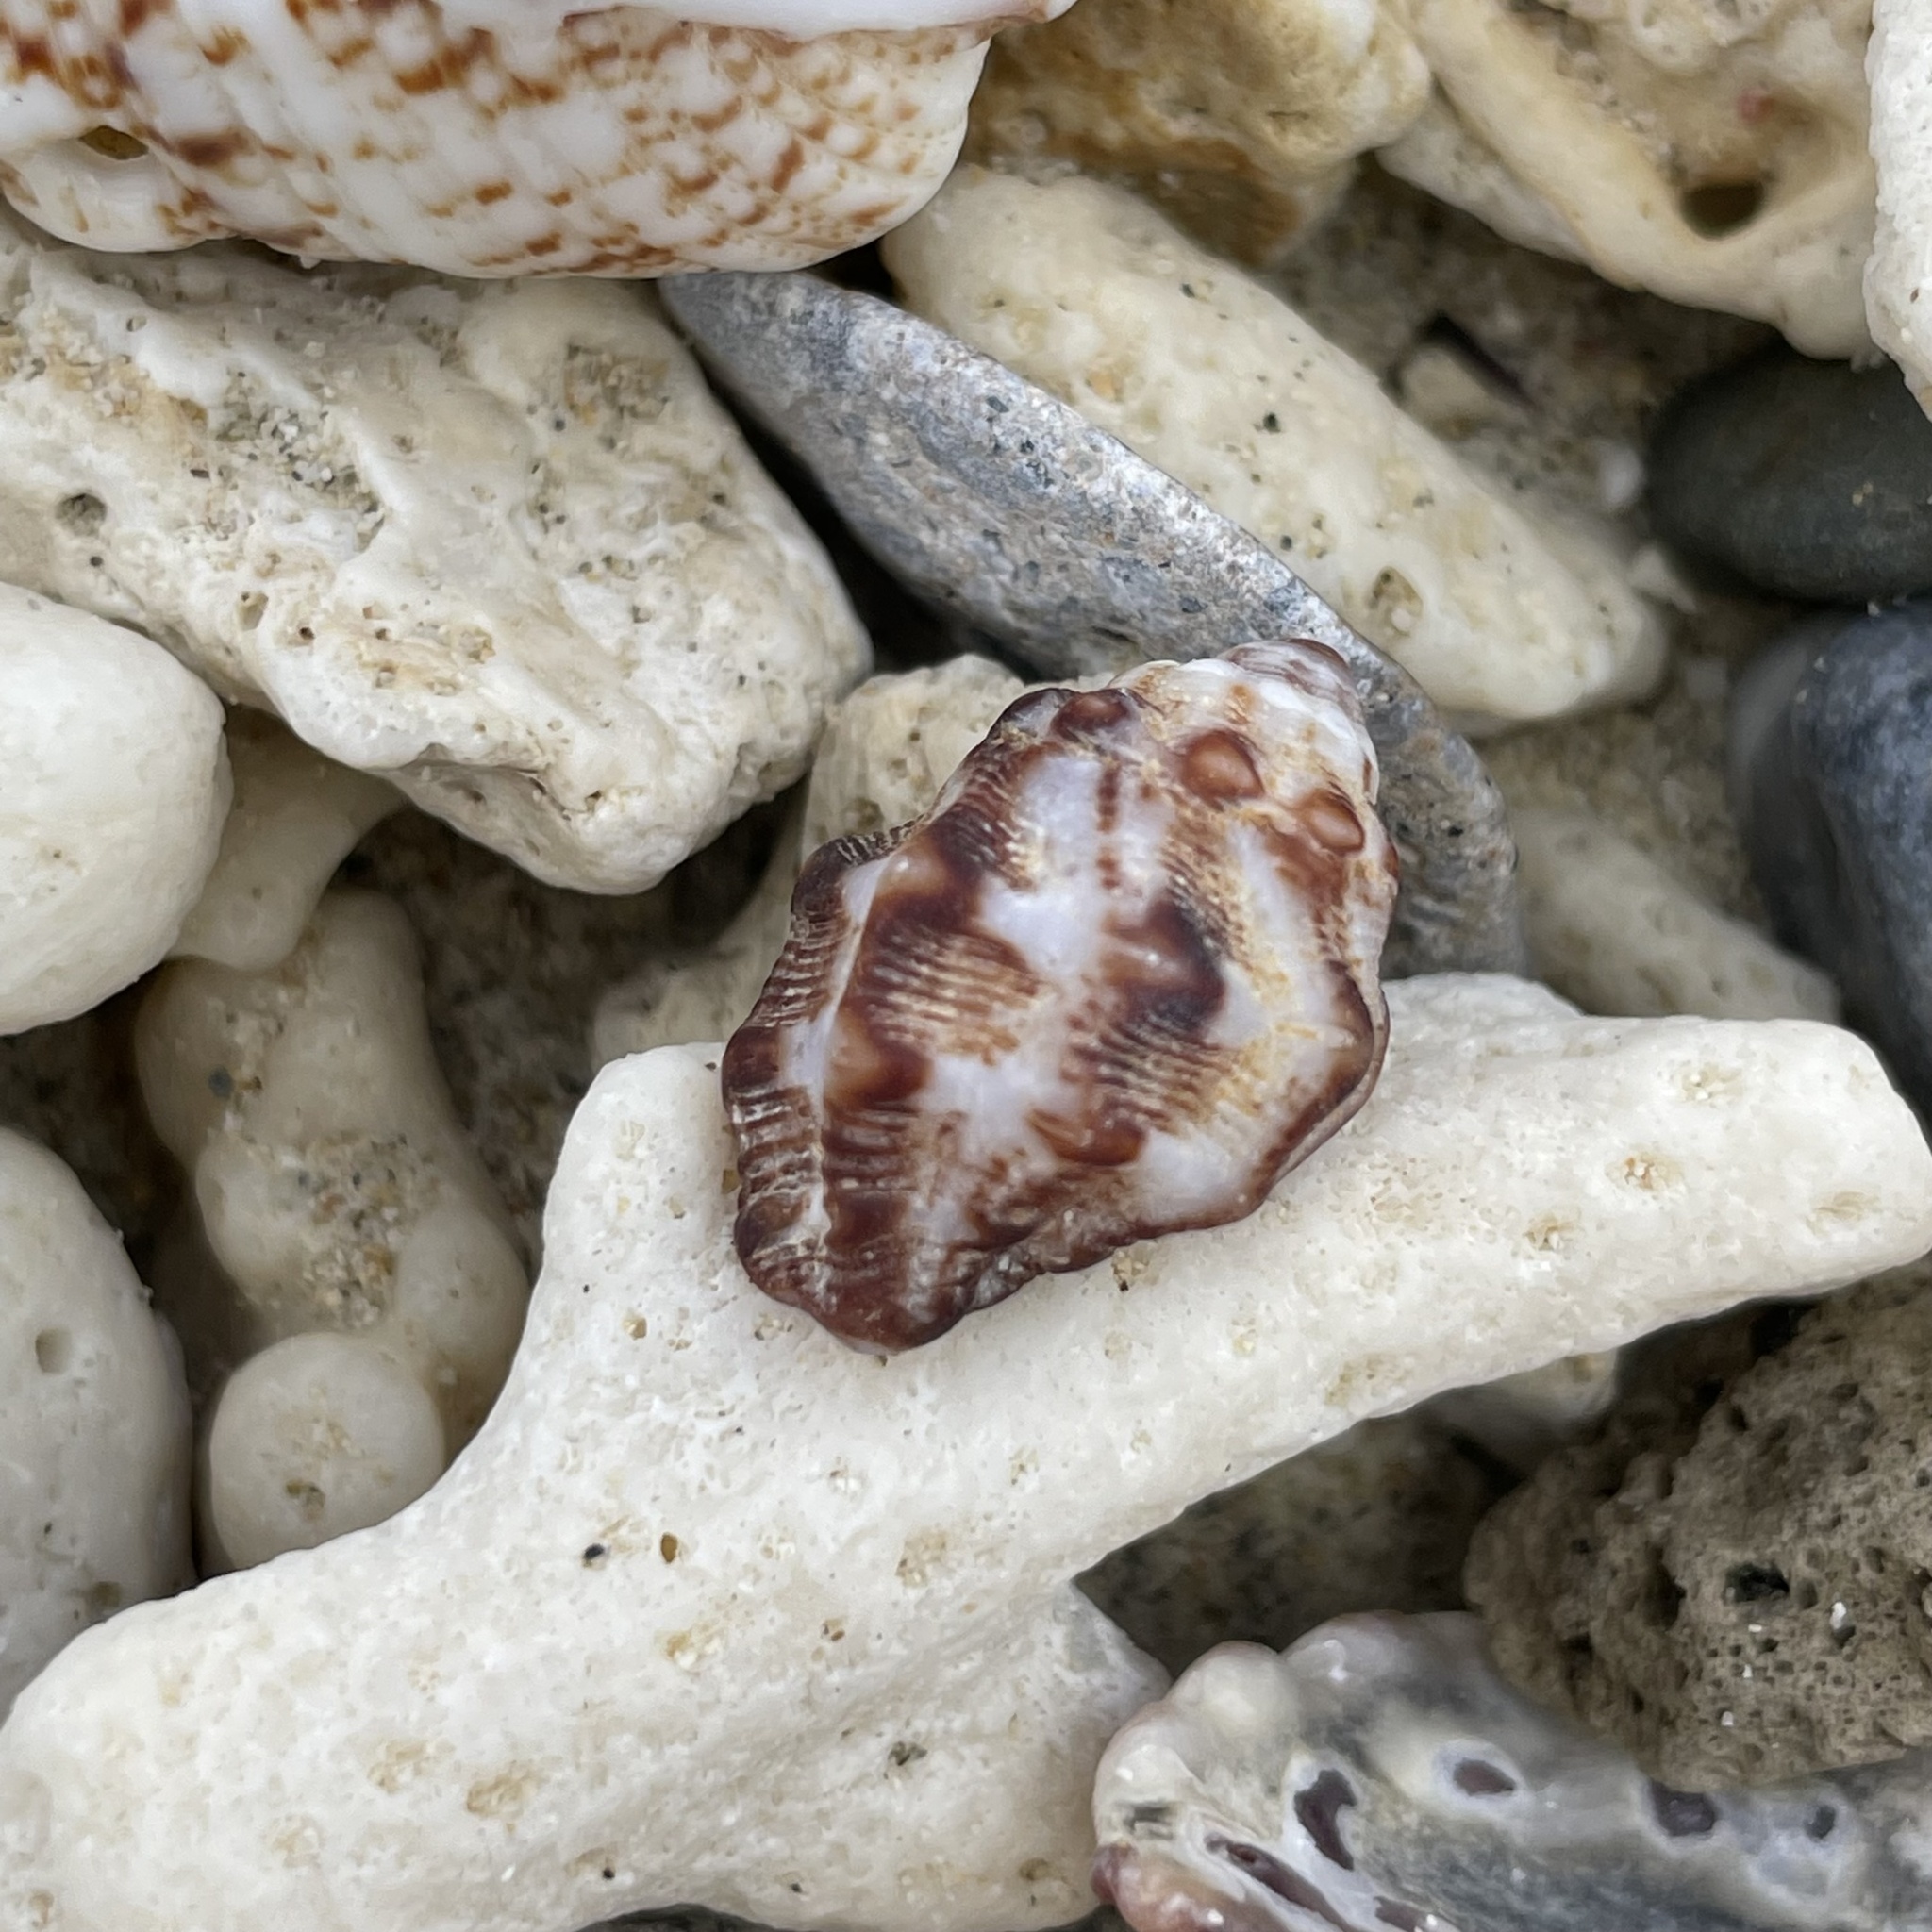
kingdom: Animalia
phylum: Mollusca
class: Gastropoda
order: Neogastropoda
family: Muricidae
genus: Morula
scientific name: Morula spinosa
